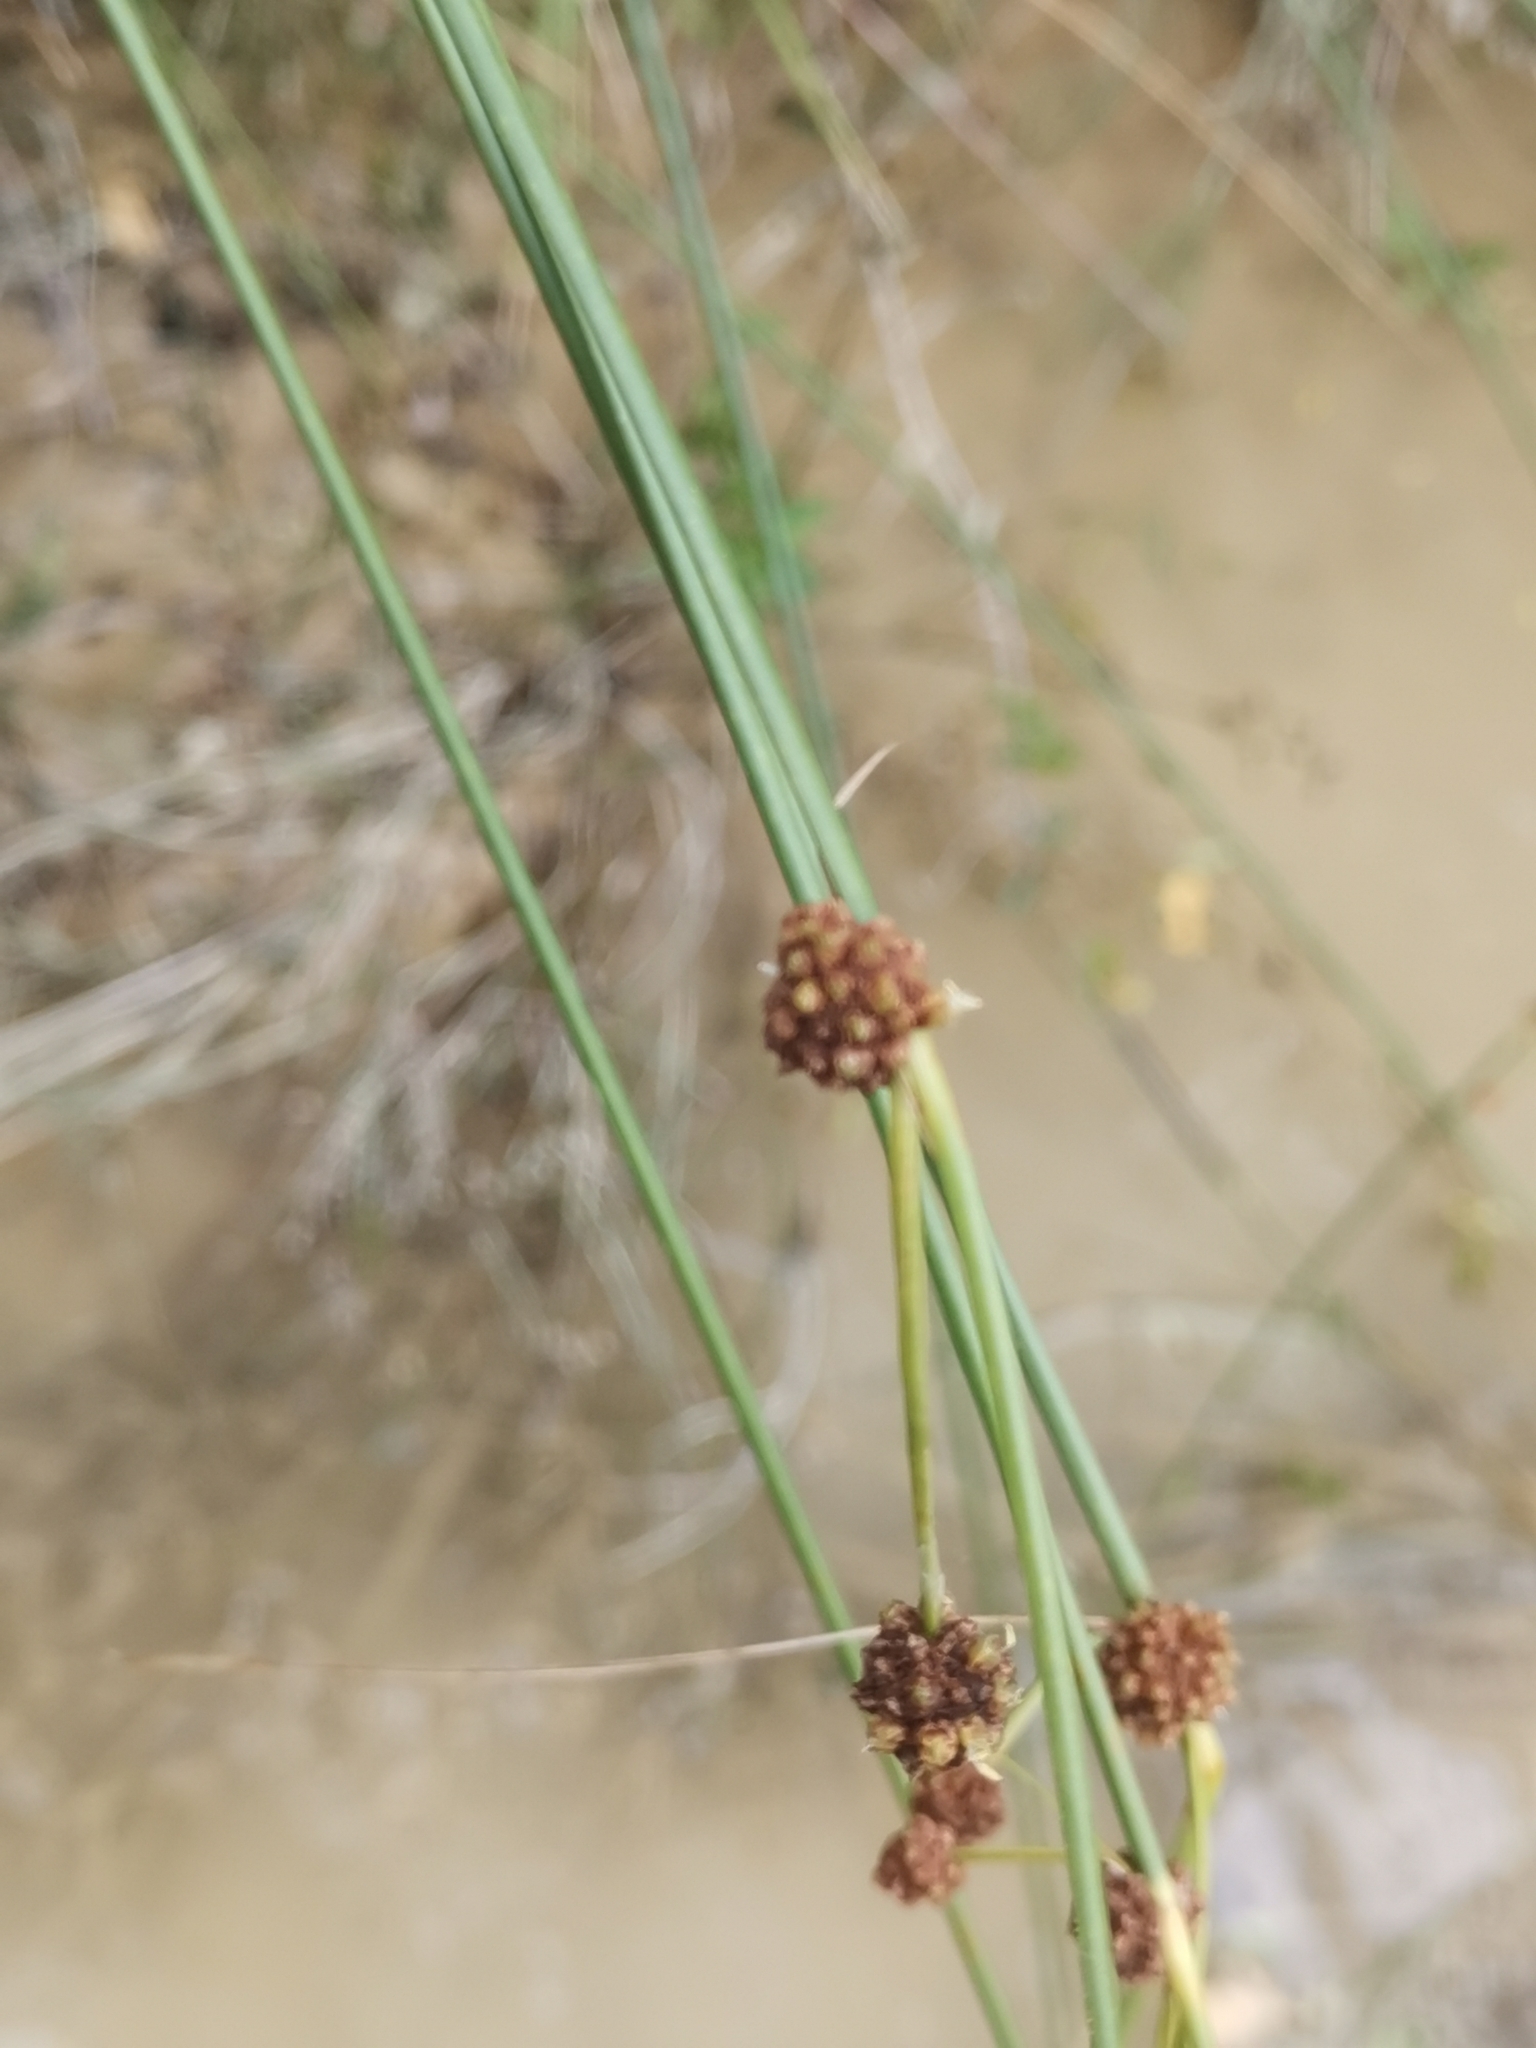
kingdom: Plantae
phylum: Tracheophyta
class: Liliopsida
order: Poales
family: Cyperaceae
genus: Scirpoides
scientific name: Scirpoides holoschoenus
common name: Round-headed club-rush
